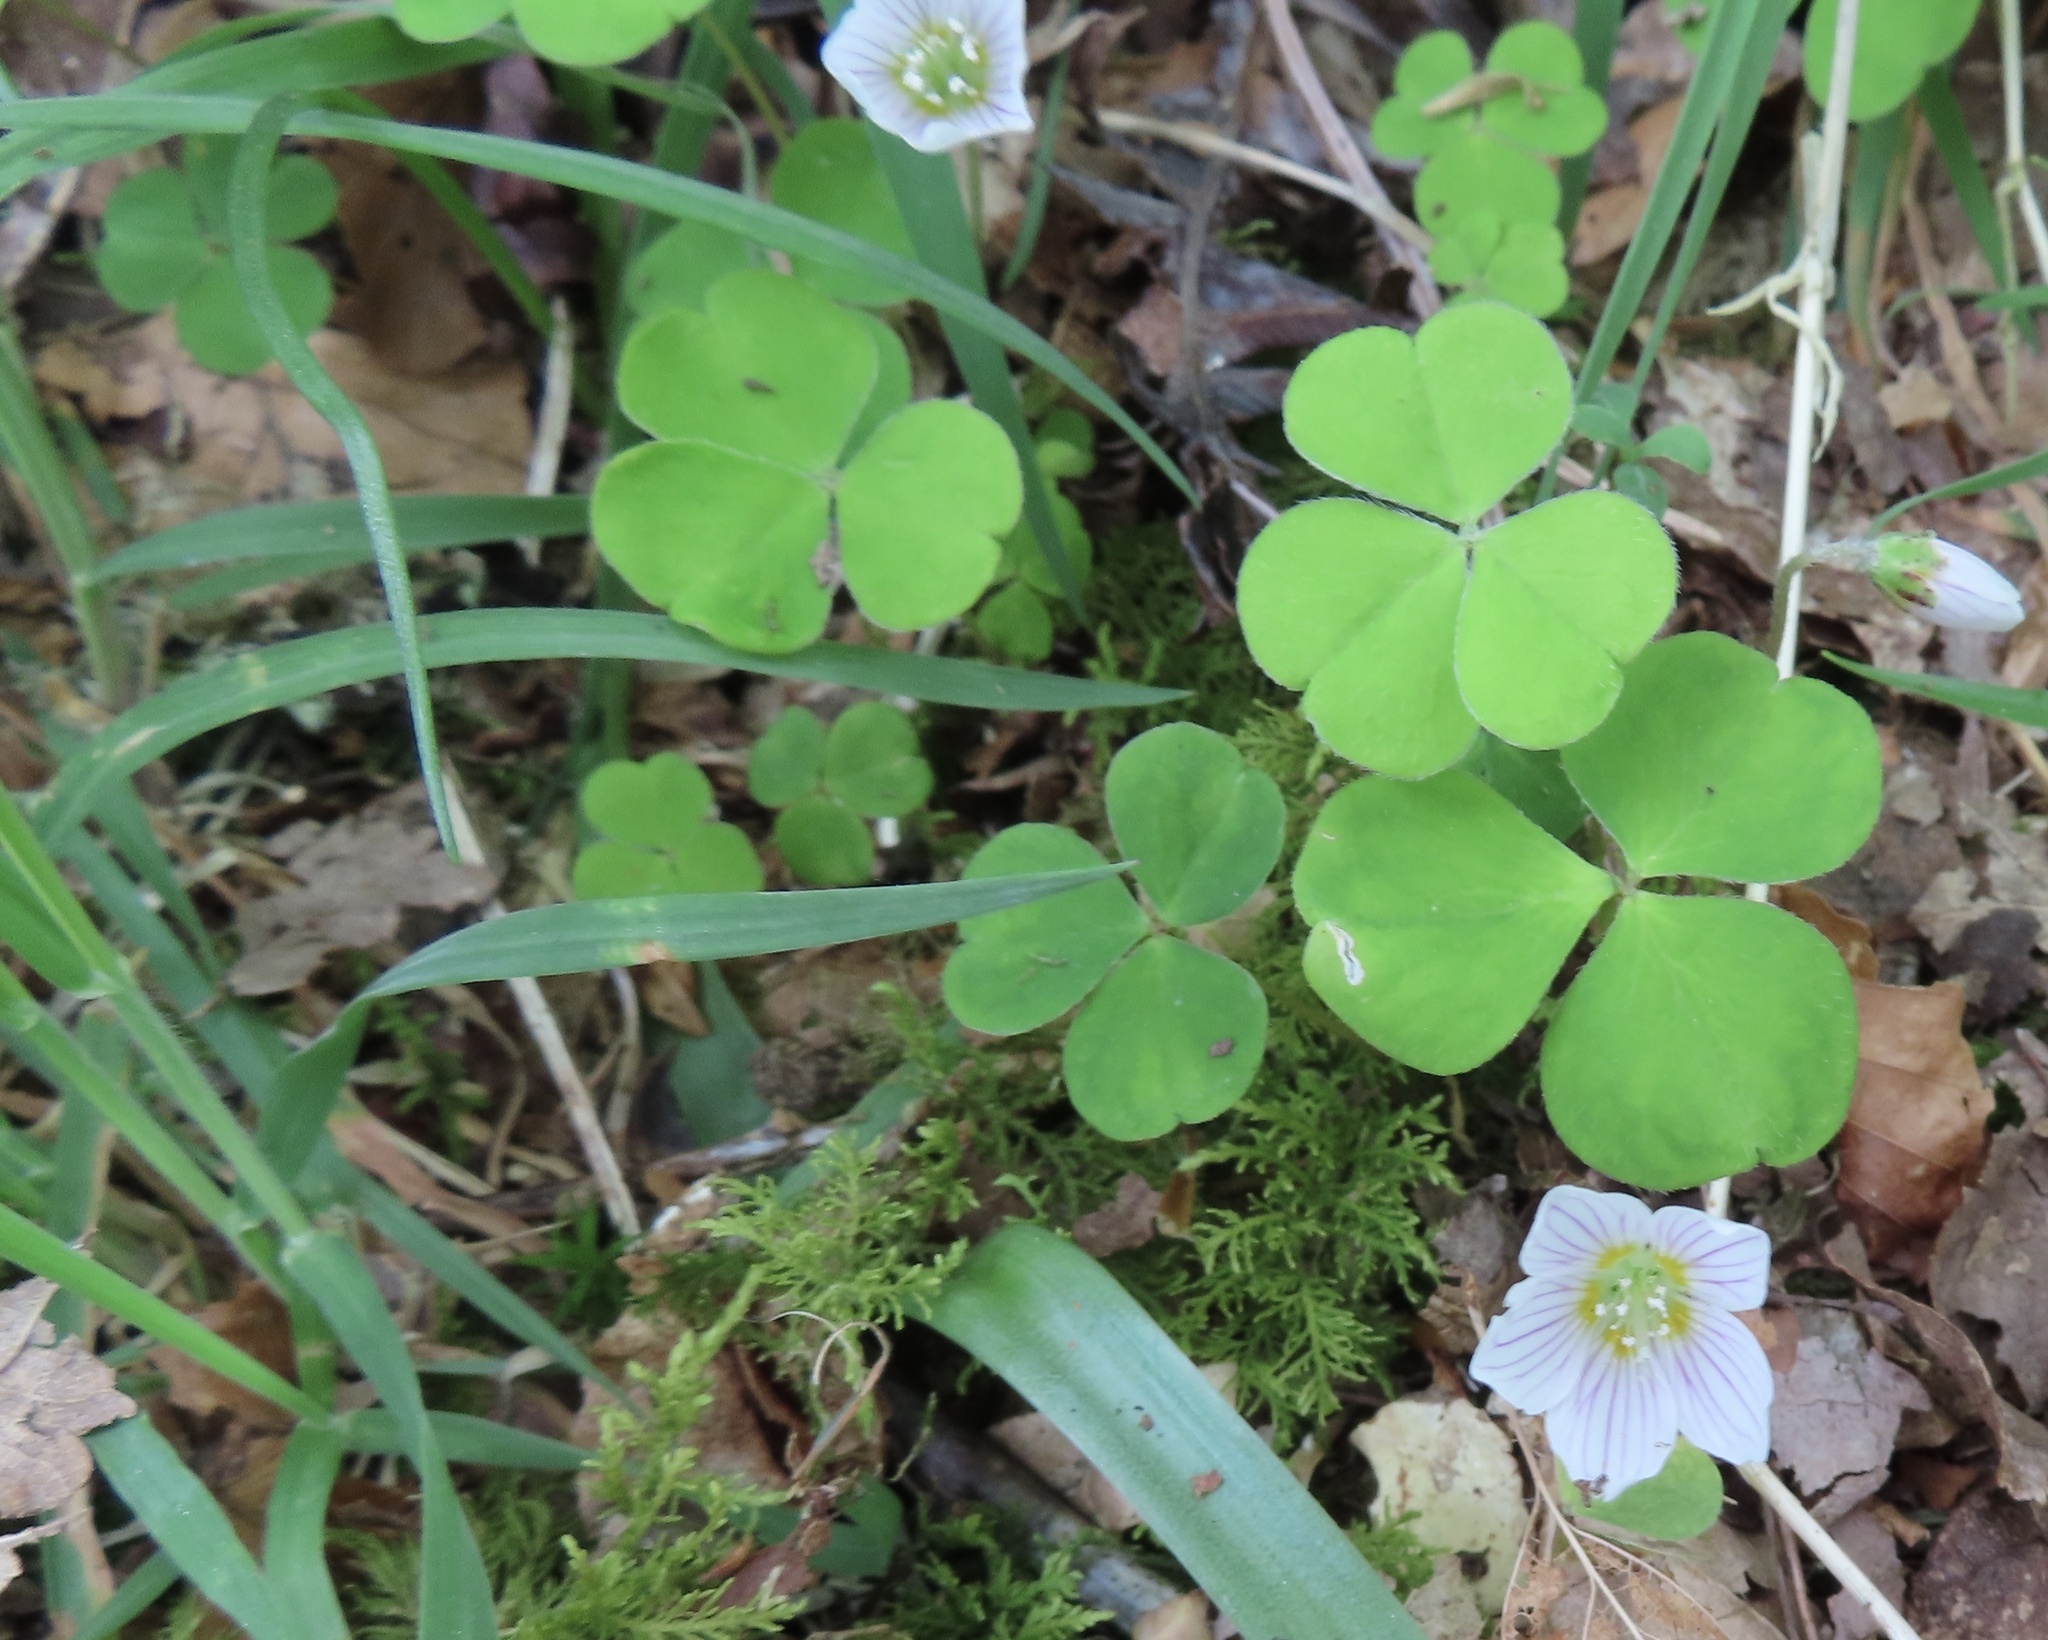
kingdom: Plantae
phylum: Tracheophyta
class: Magnoliopsida
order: Oxalidales
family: Oxalidaceae
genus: Oxalis
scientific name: Oxalis acetosella
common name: Wood-sorrel
